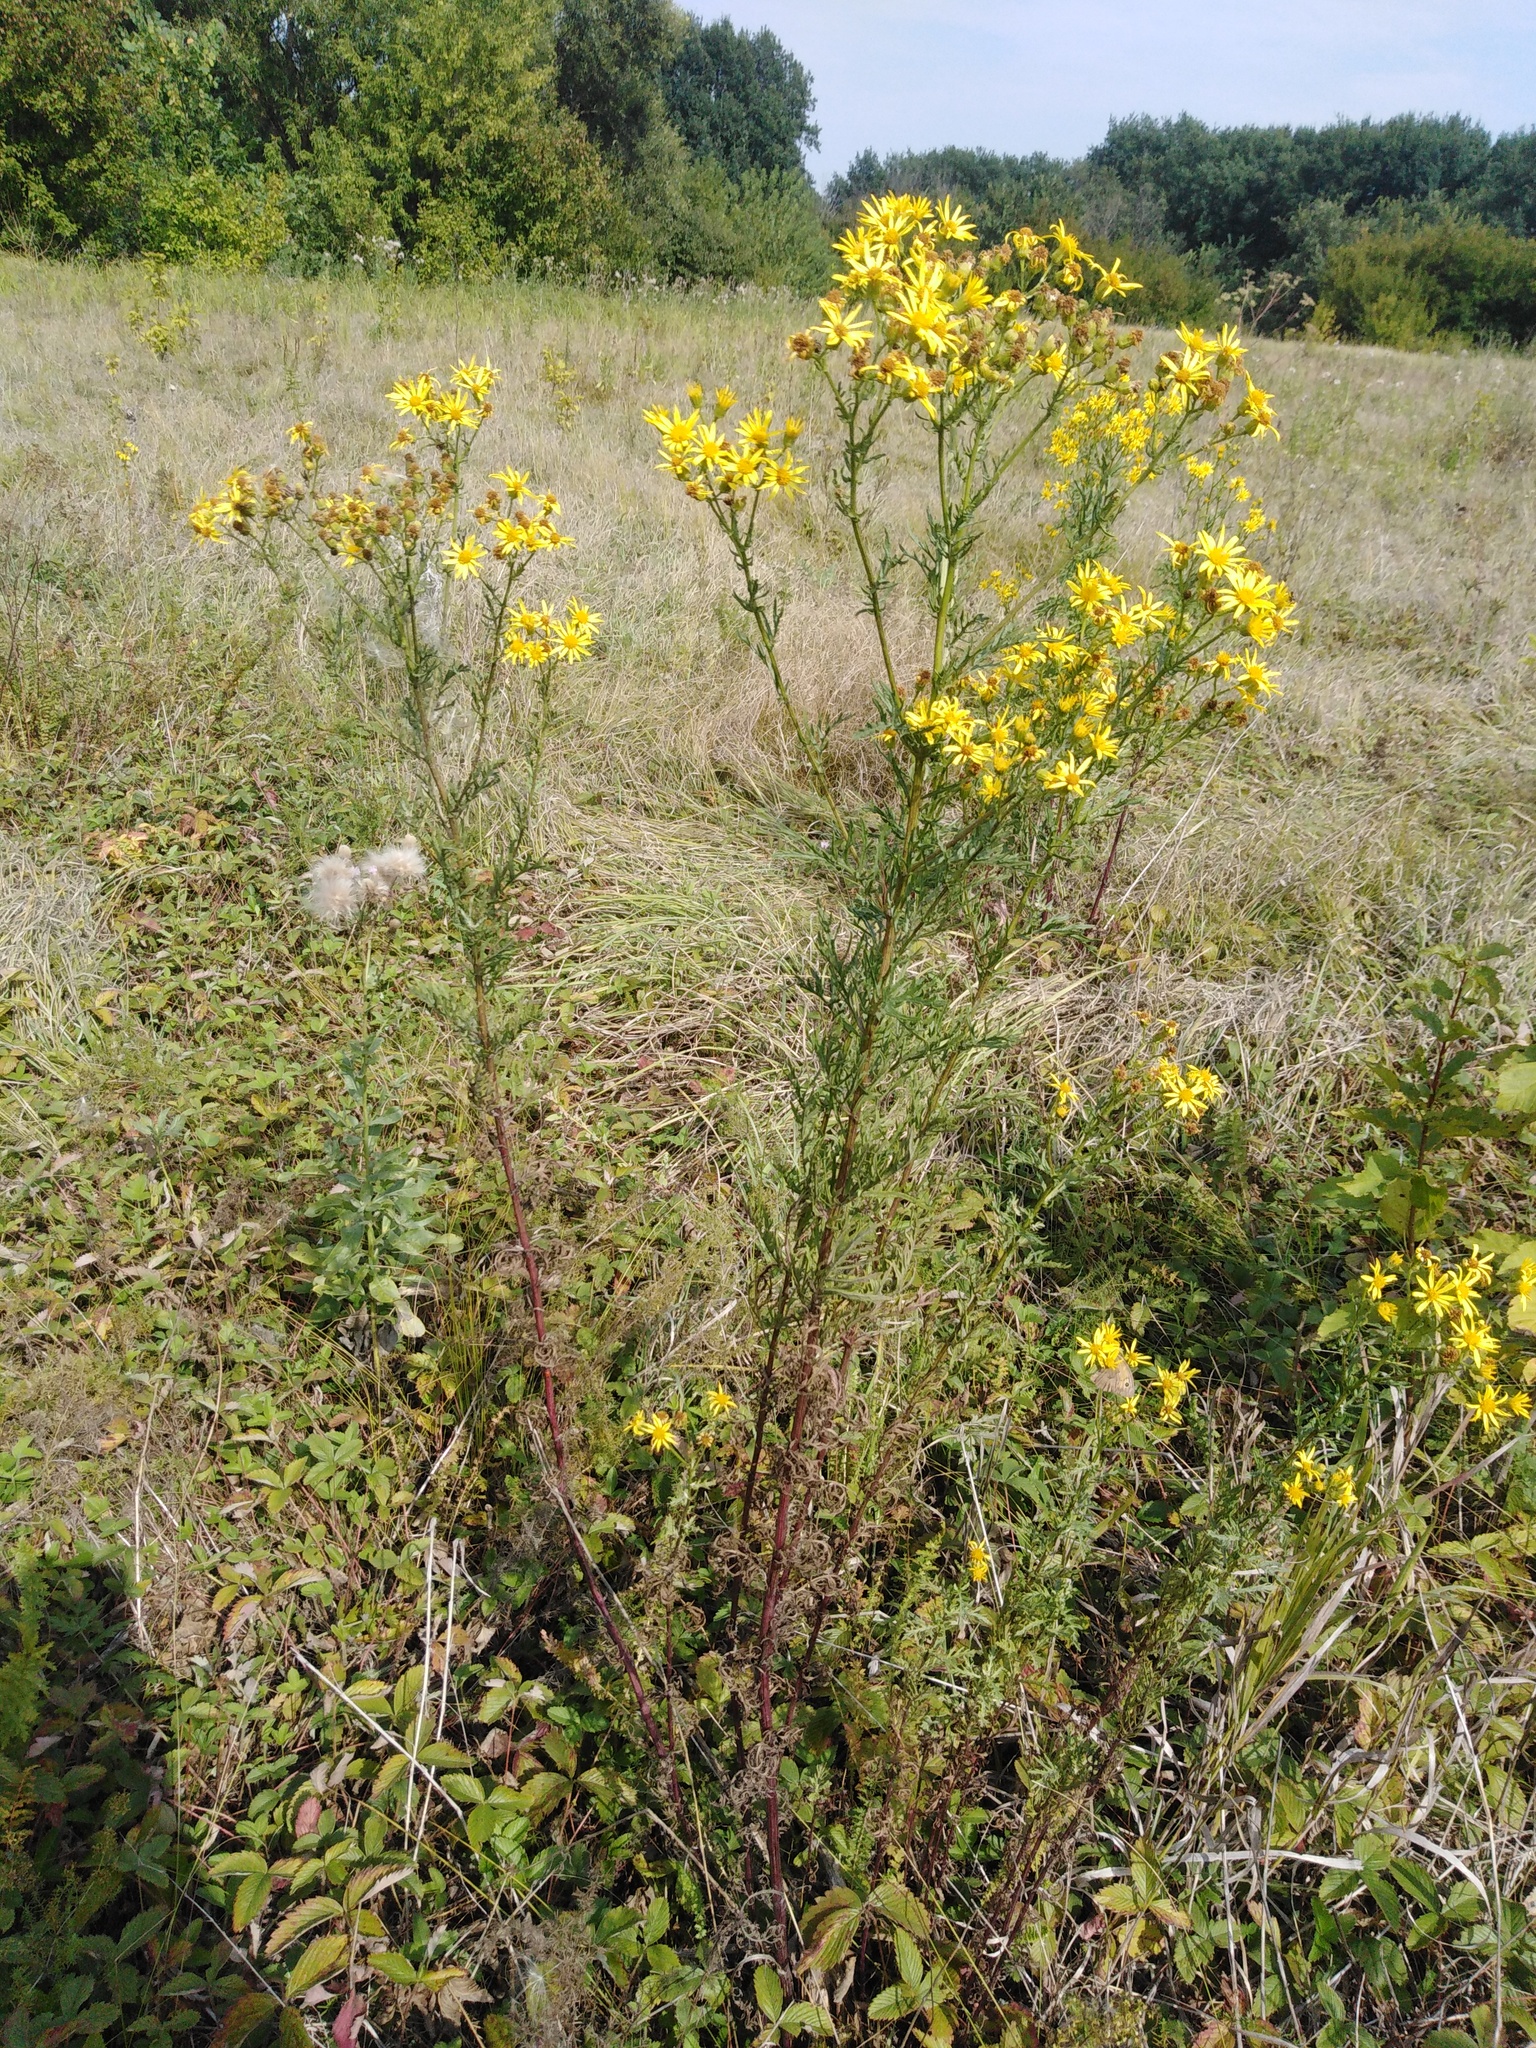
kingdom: Plantae
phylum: Tracheophyta
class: Magnoliopsida
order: Asterales
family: Asteraceae
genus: Jacobaea
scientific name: Jacobaea erucifolia
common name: Hoary ragwort
